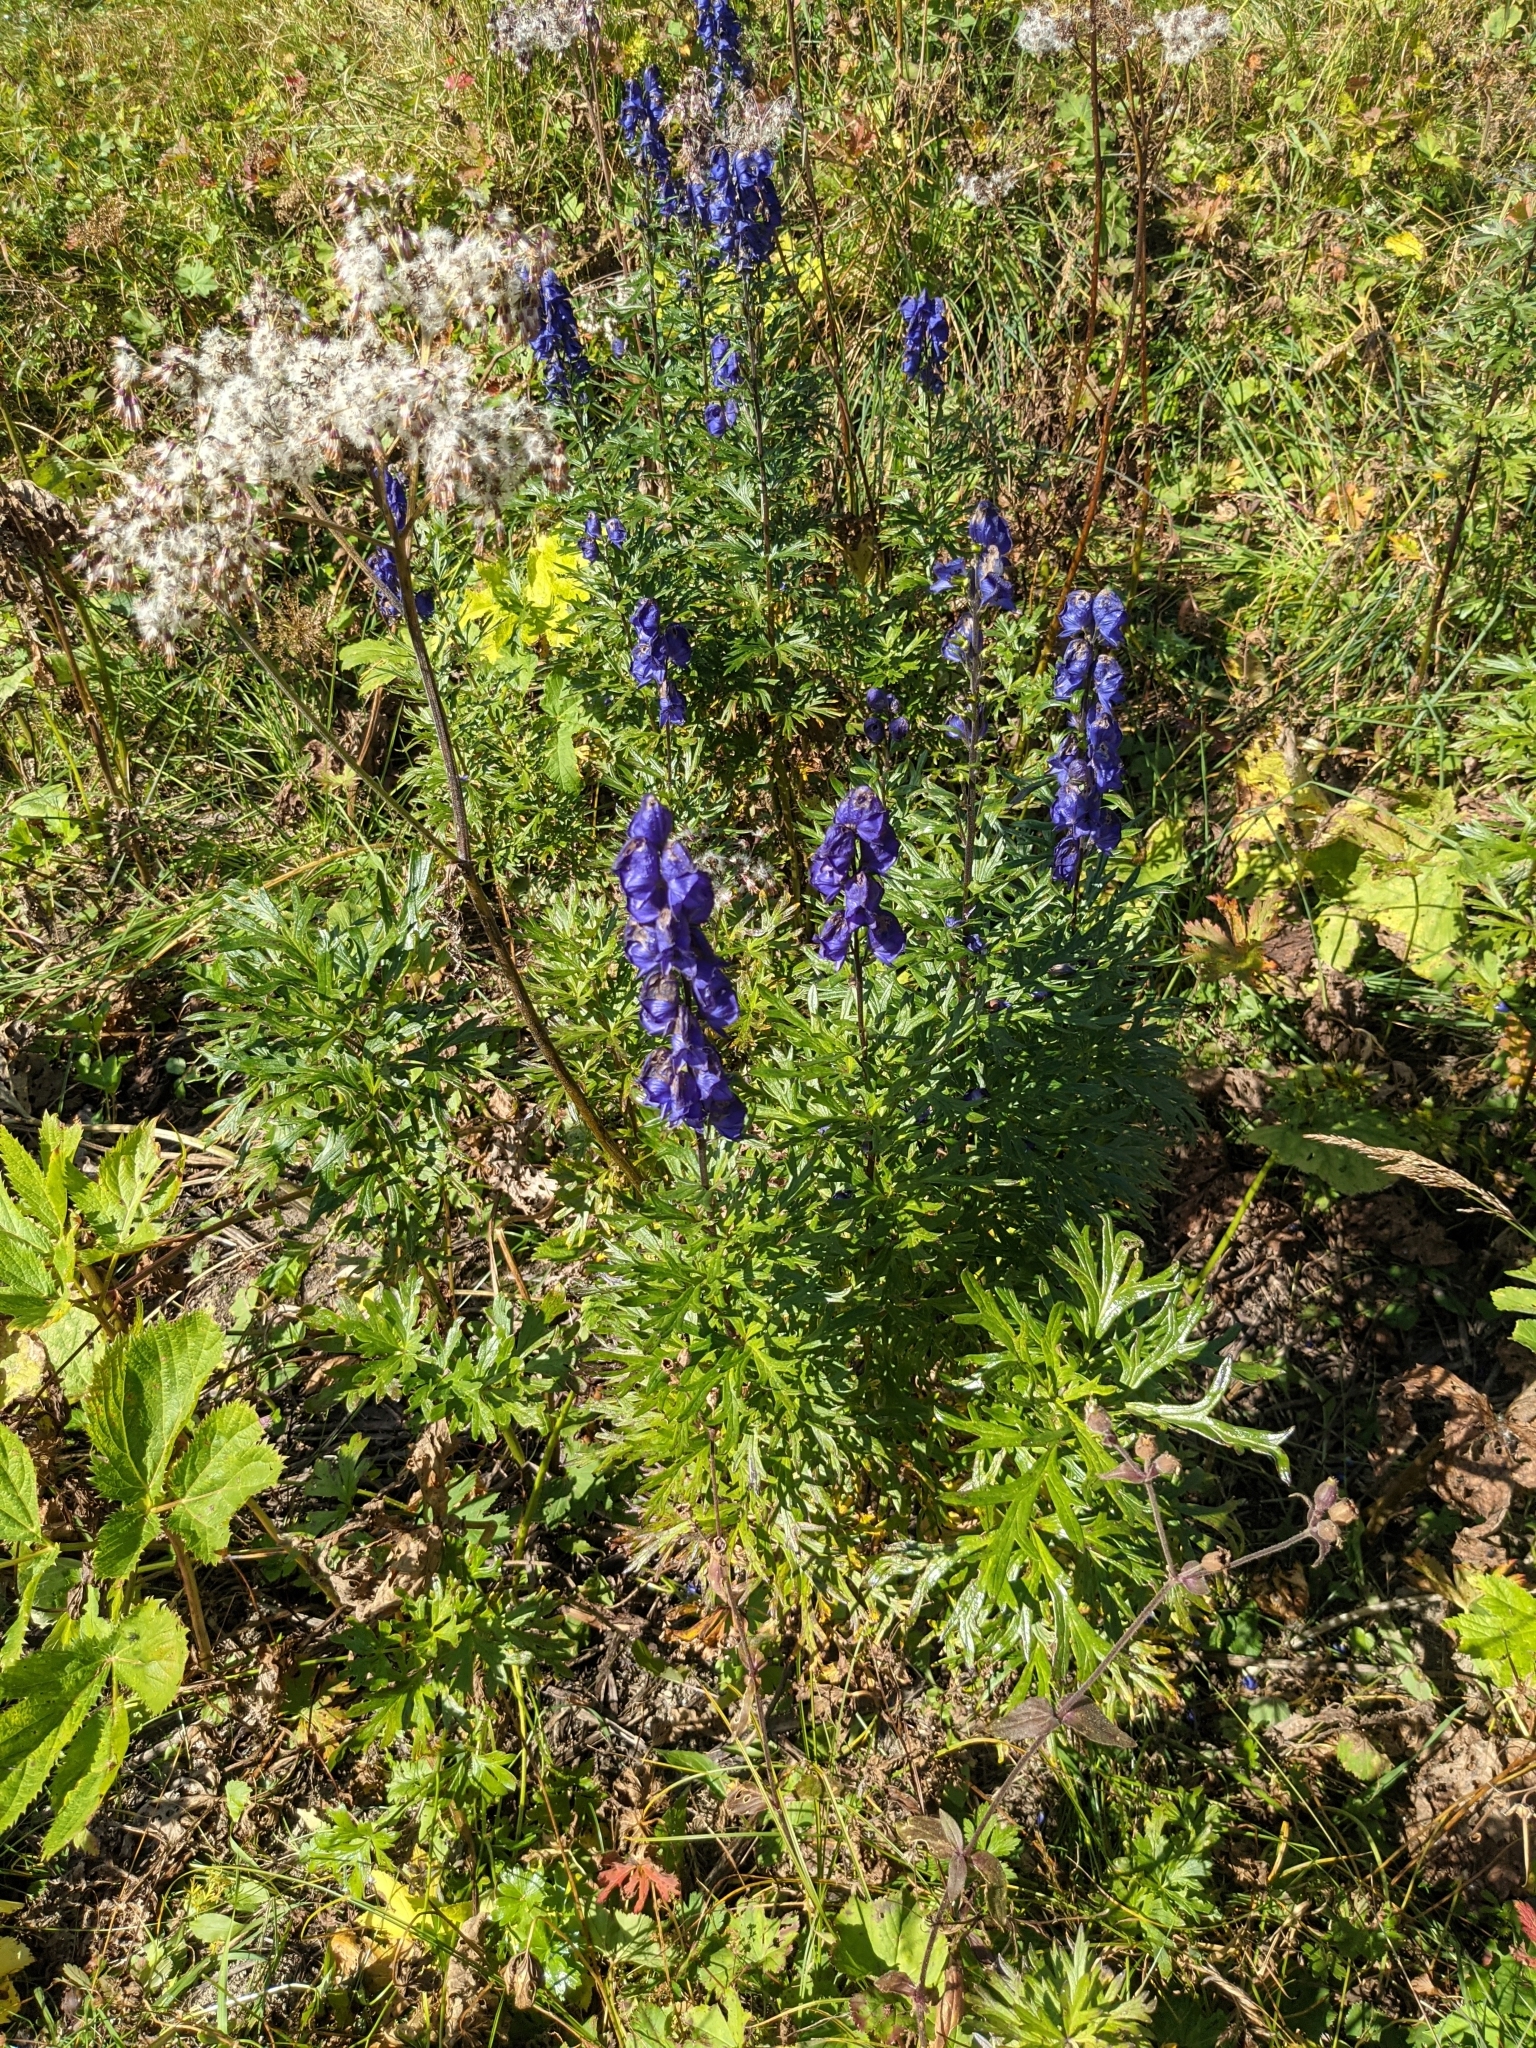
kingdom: Plantae
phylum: Tracheophyta
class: Magnoliopsida
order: Ranunculales
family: Ranunculaceae
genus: Aconitum
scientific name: Aconitum napellus
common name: Garden monkshood
